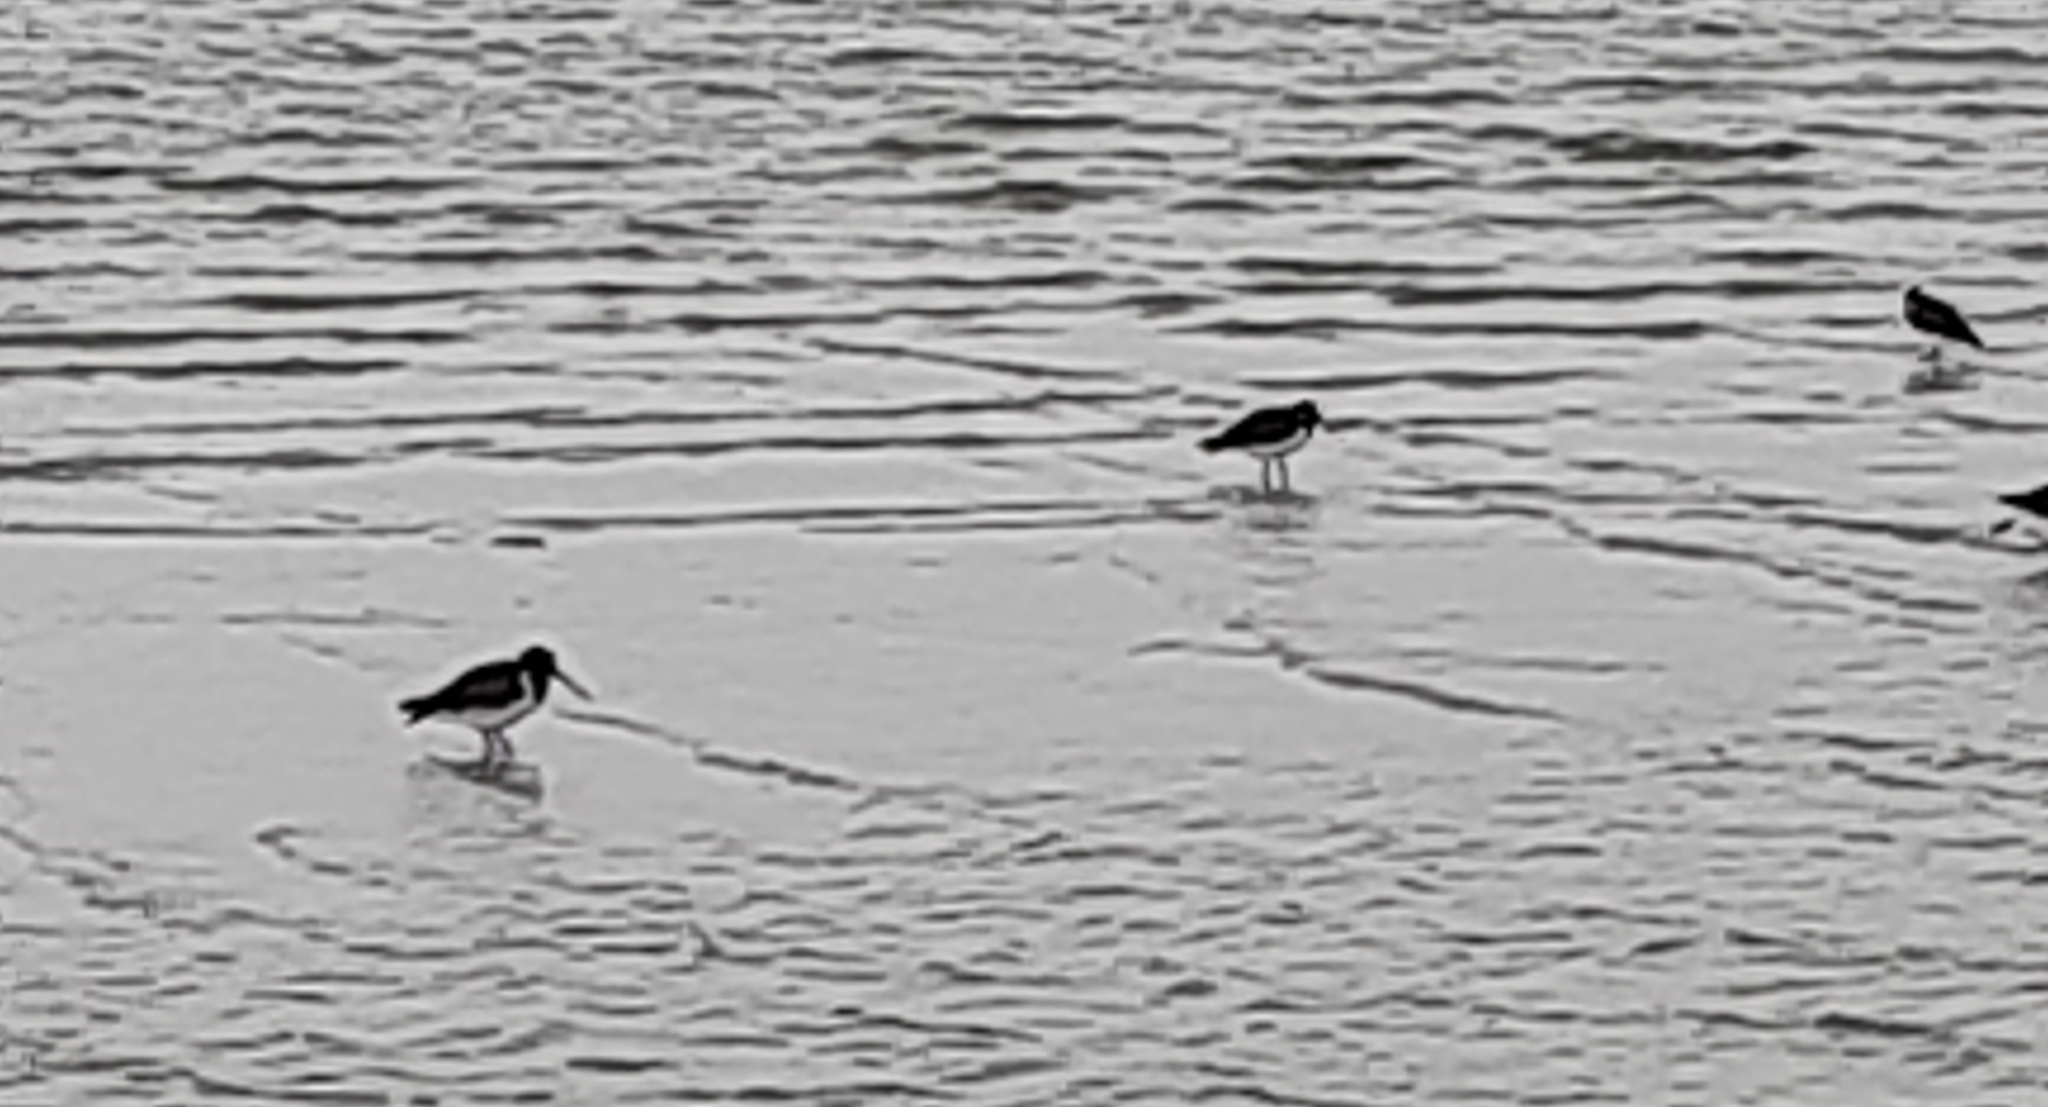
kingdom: Animalia
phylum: Chordata
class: Aves
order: Charadriiformes
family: Haematopodidae
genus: Haematopus
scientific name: Haematopus finschi
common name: South island oystercatcher
